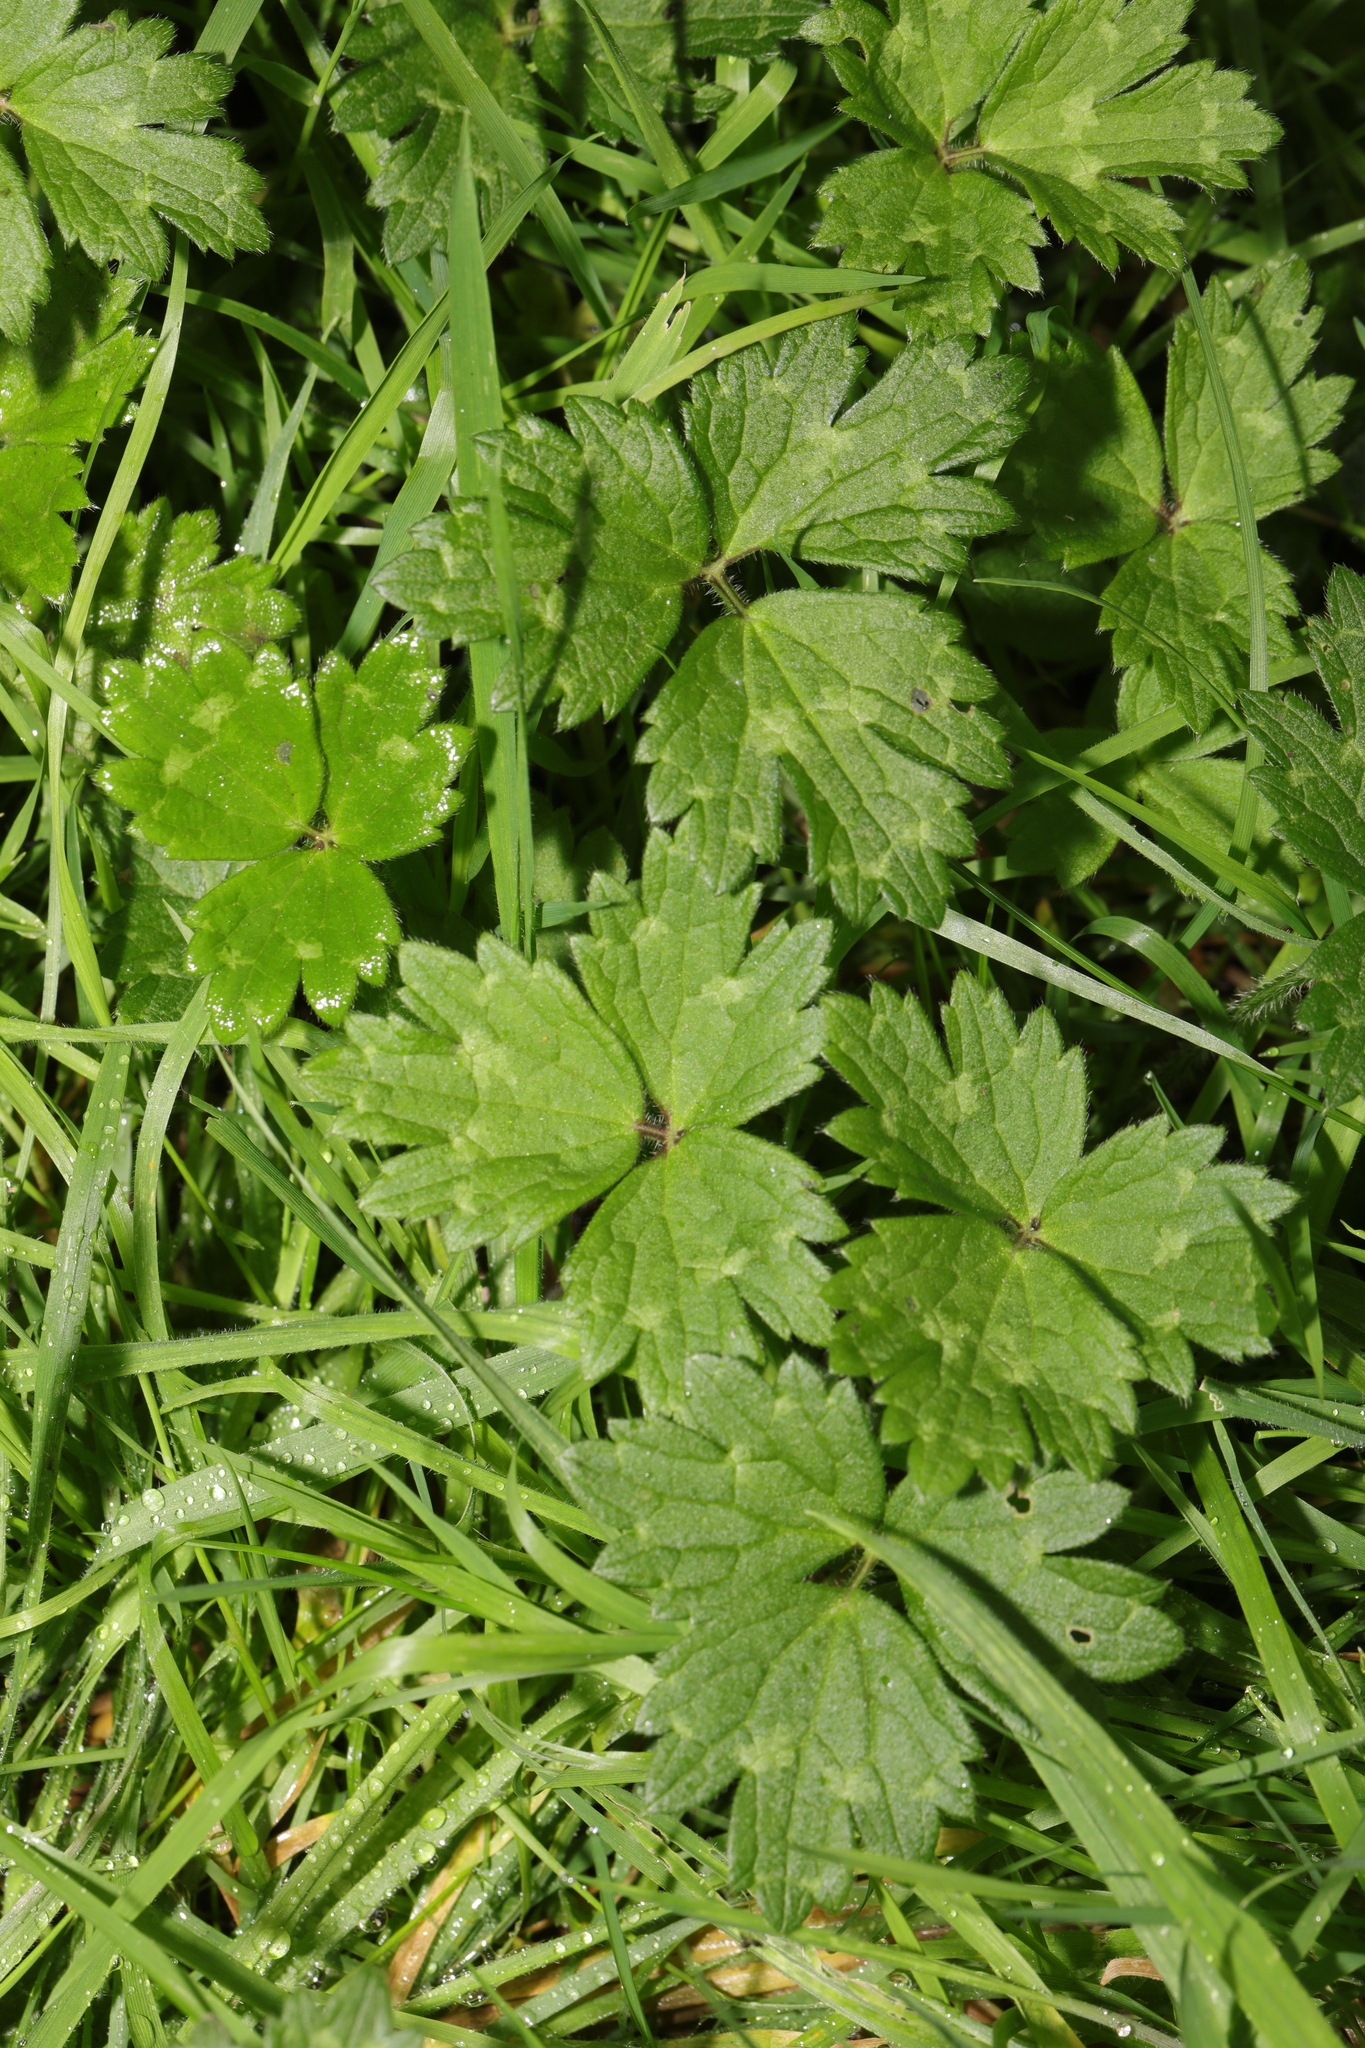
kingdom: Plantae
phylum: Tracheophyta
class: Magnoliopsida
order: Ranunculales
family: Ranunculaceae
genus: Ranunculus
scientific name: Ranunculus repens
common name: Creeping buttercup
